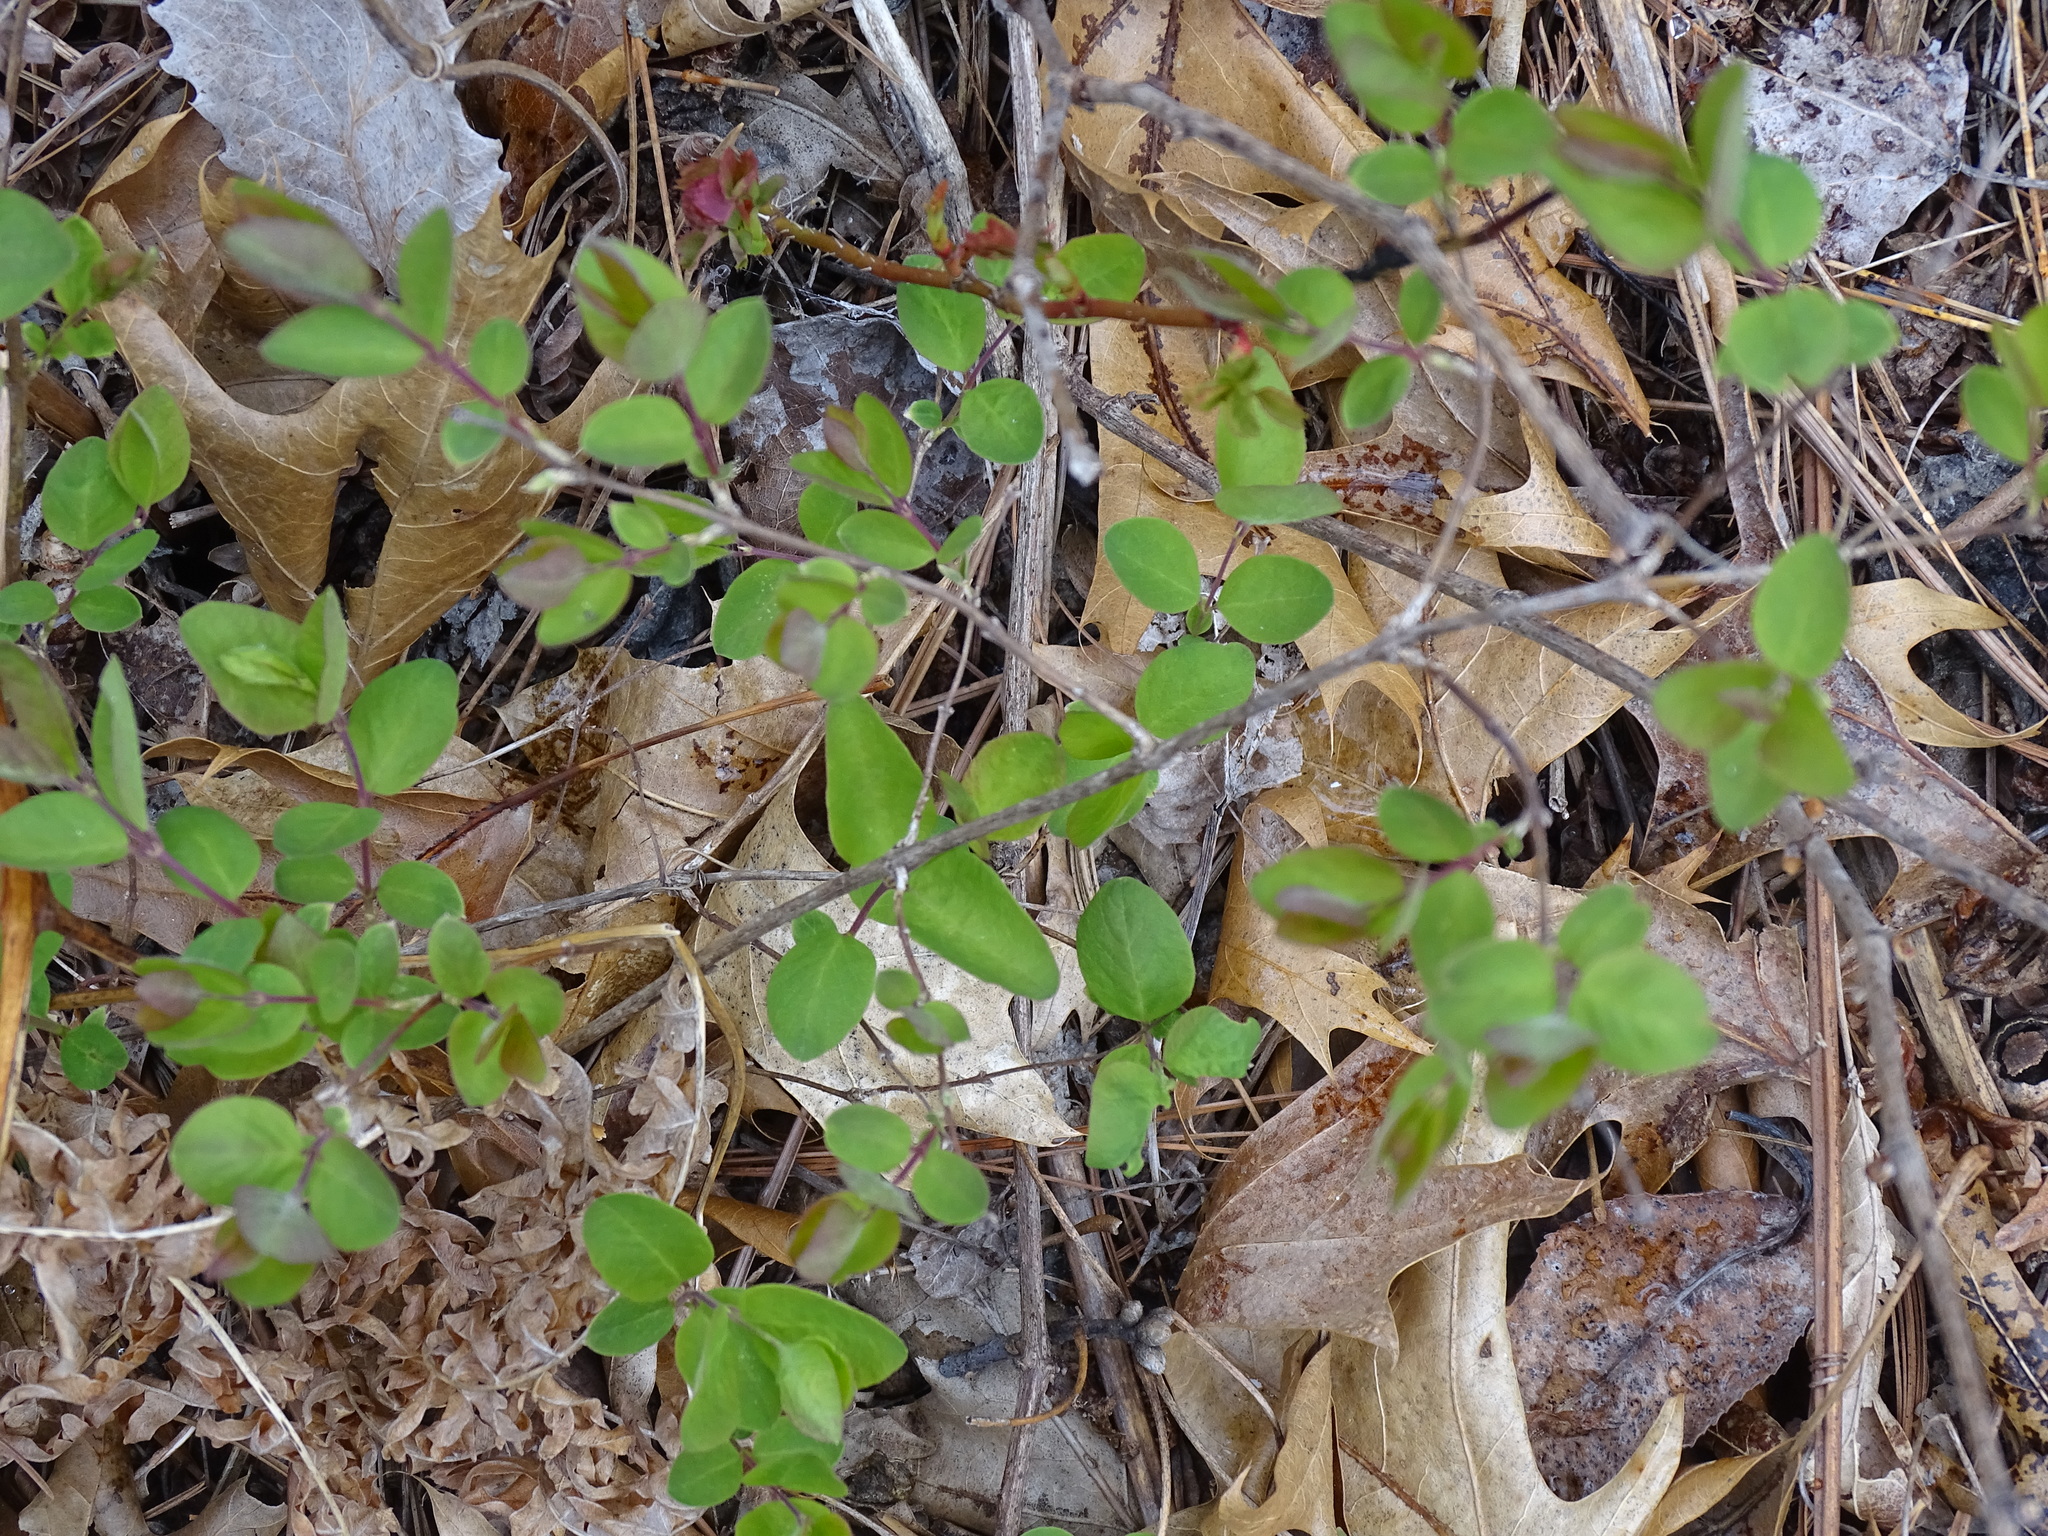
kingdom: Plantae
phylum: Tracheophyta
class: Magnoliopsida
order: Dipsacales
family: Caprifoliaceae
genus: Symphoricarpos
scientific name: Symphoricarpos albus
